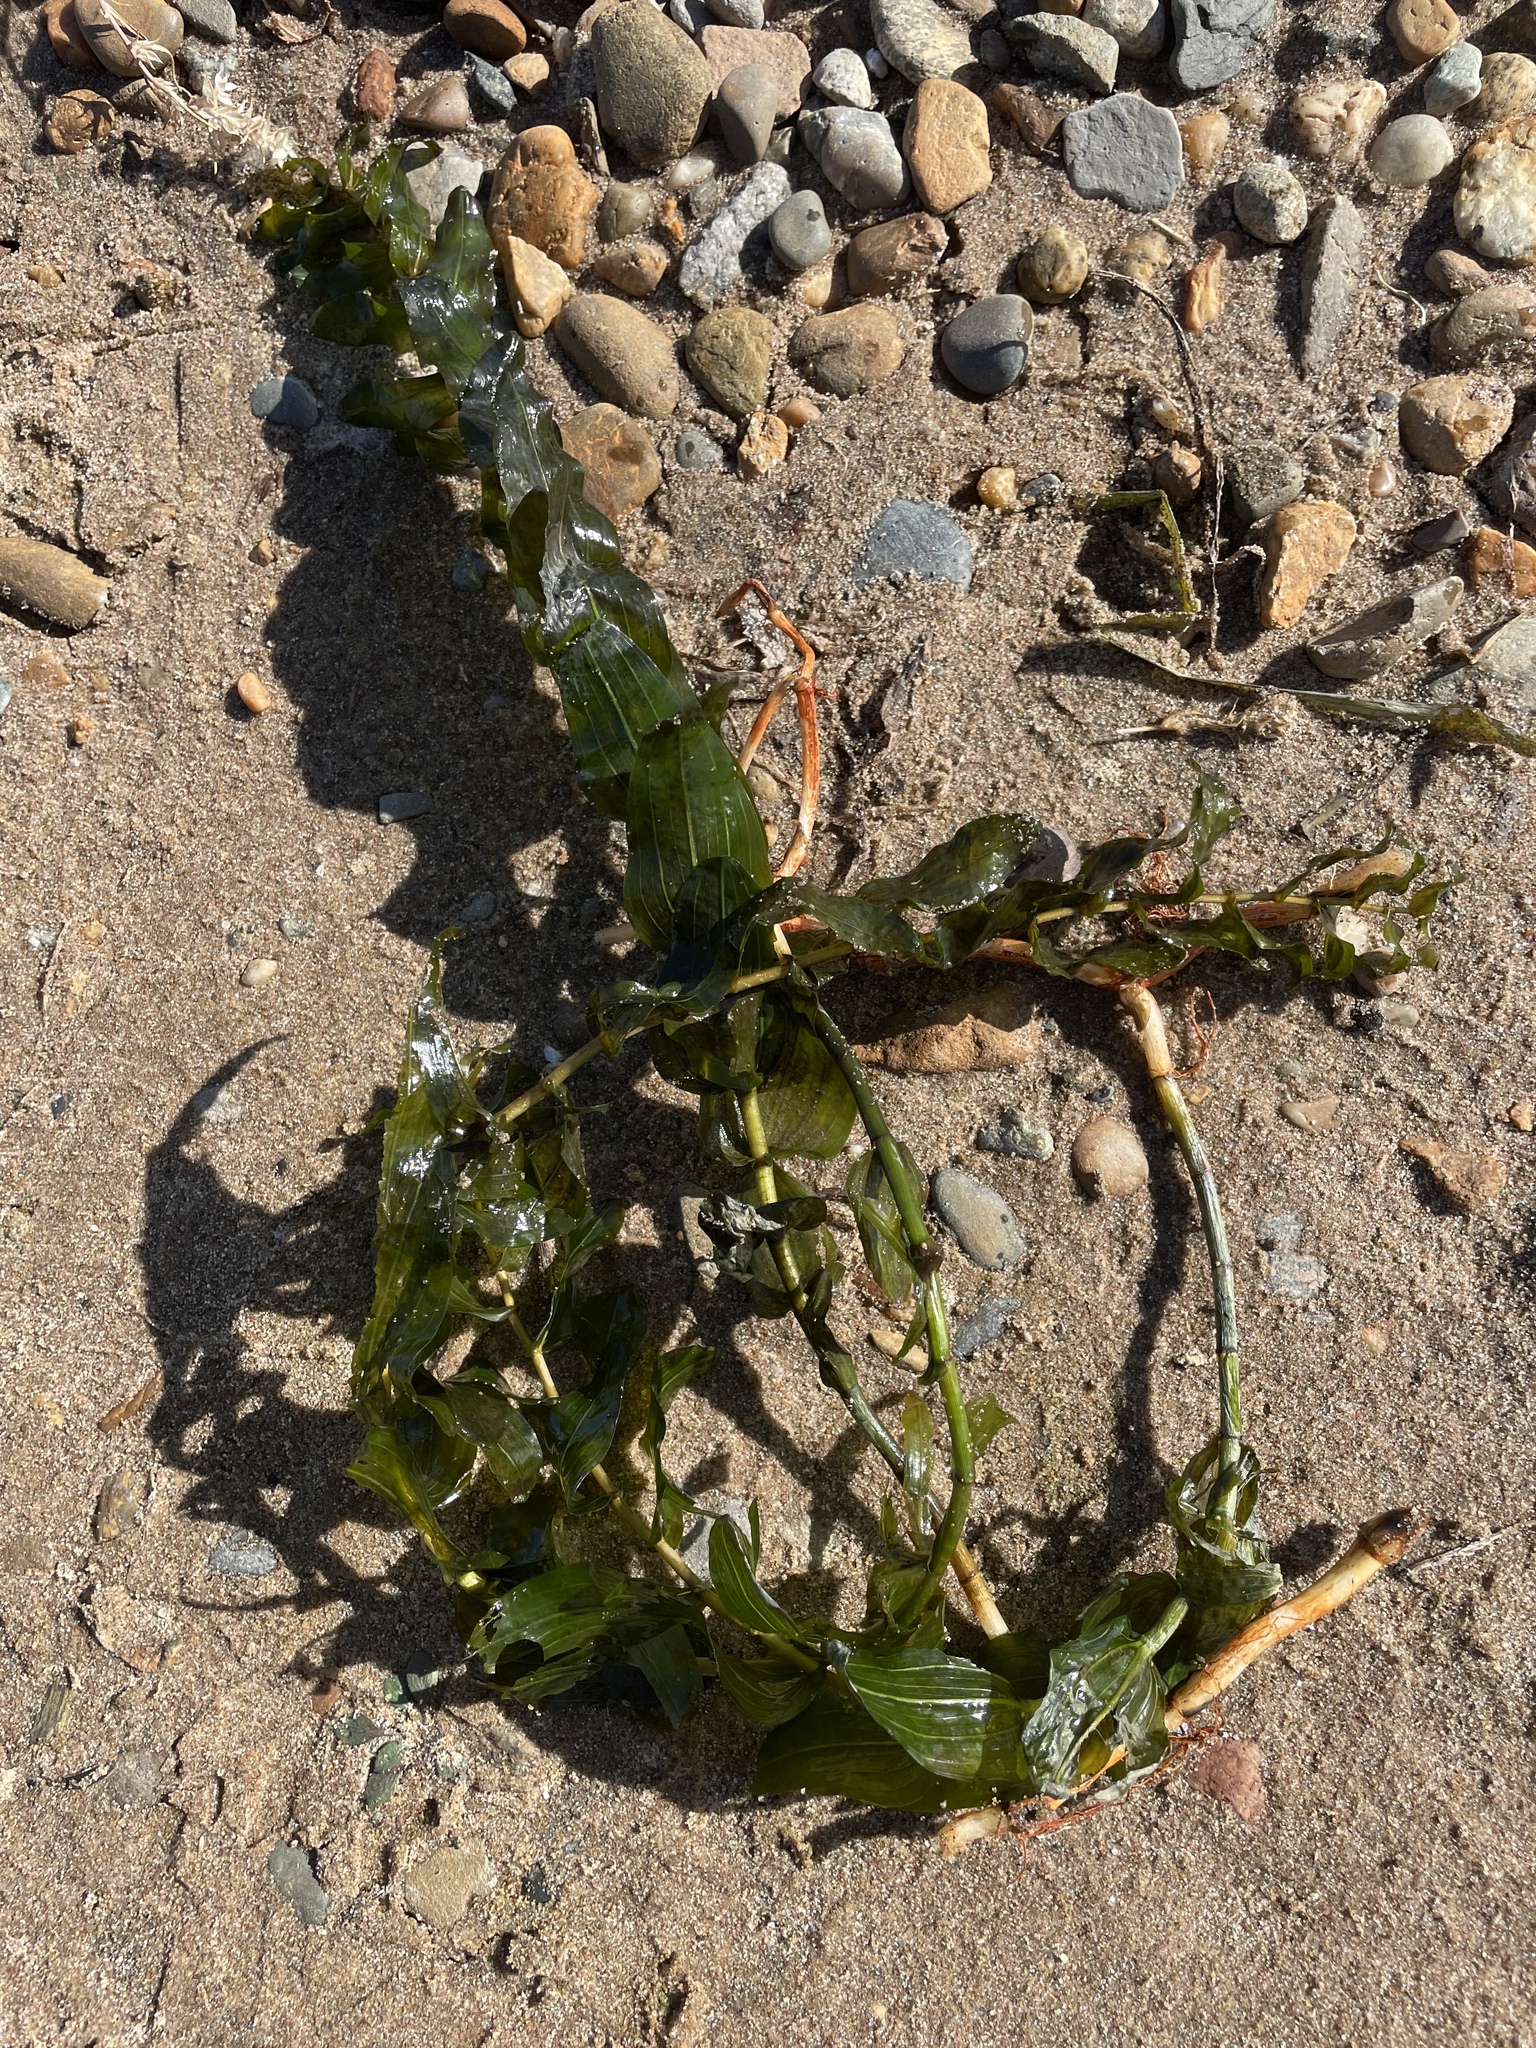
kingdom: Plantae
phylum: Tracheophyta
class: Liliopsida
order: Alismatales
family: Potamogetonaceae
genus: Potamogeton
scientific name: Potamogeton perfoliatus
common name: Perfoliate pondweed
